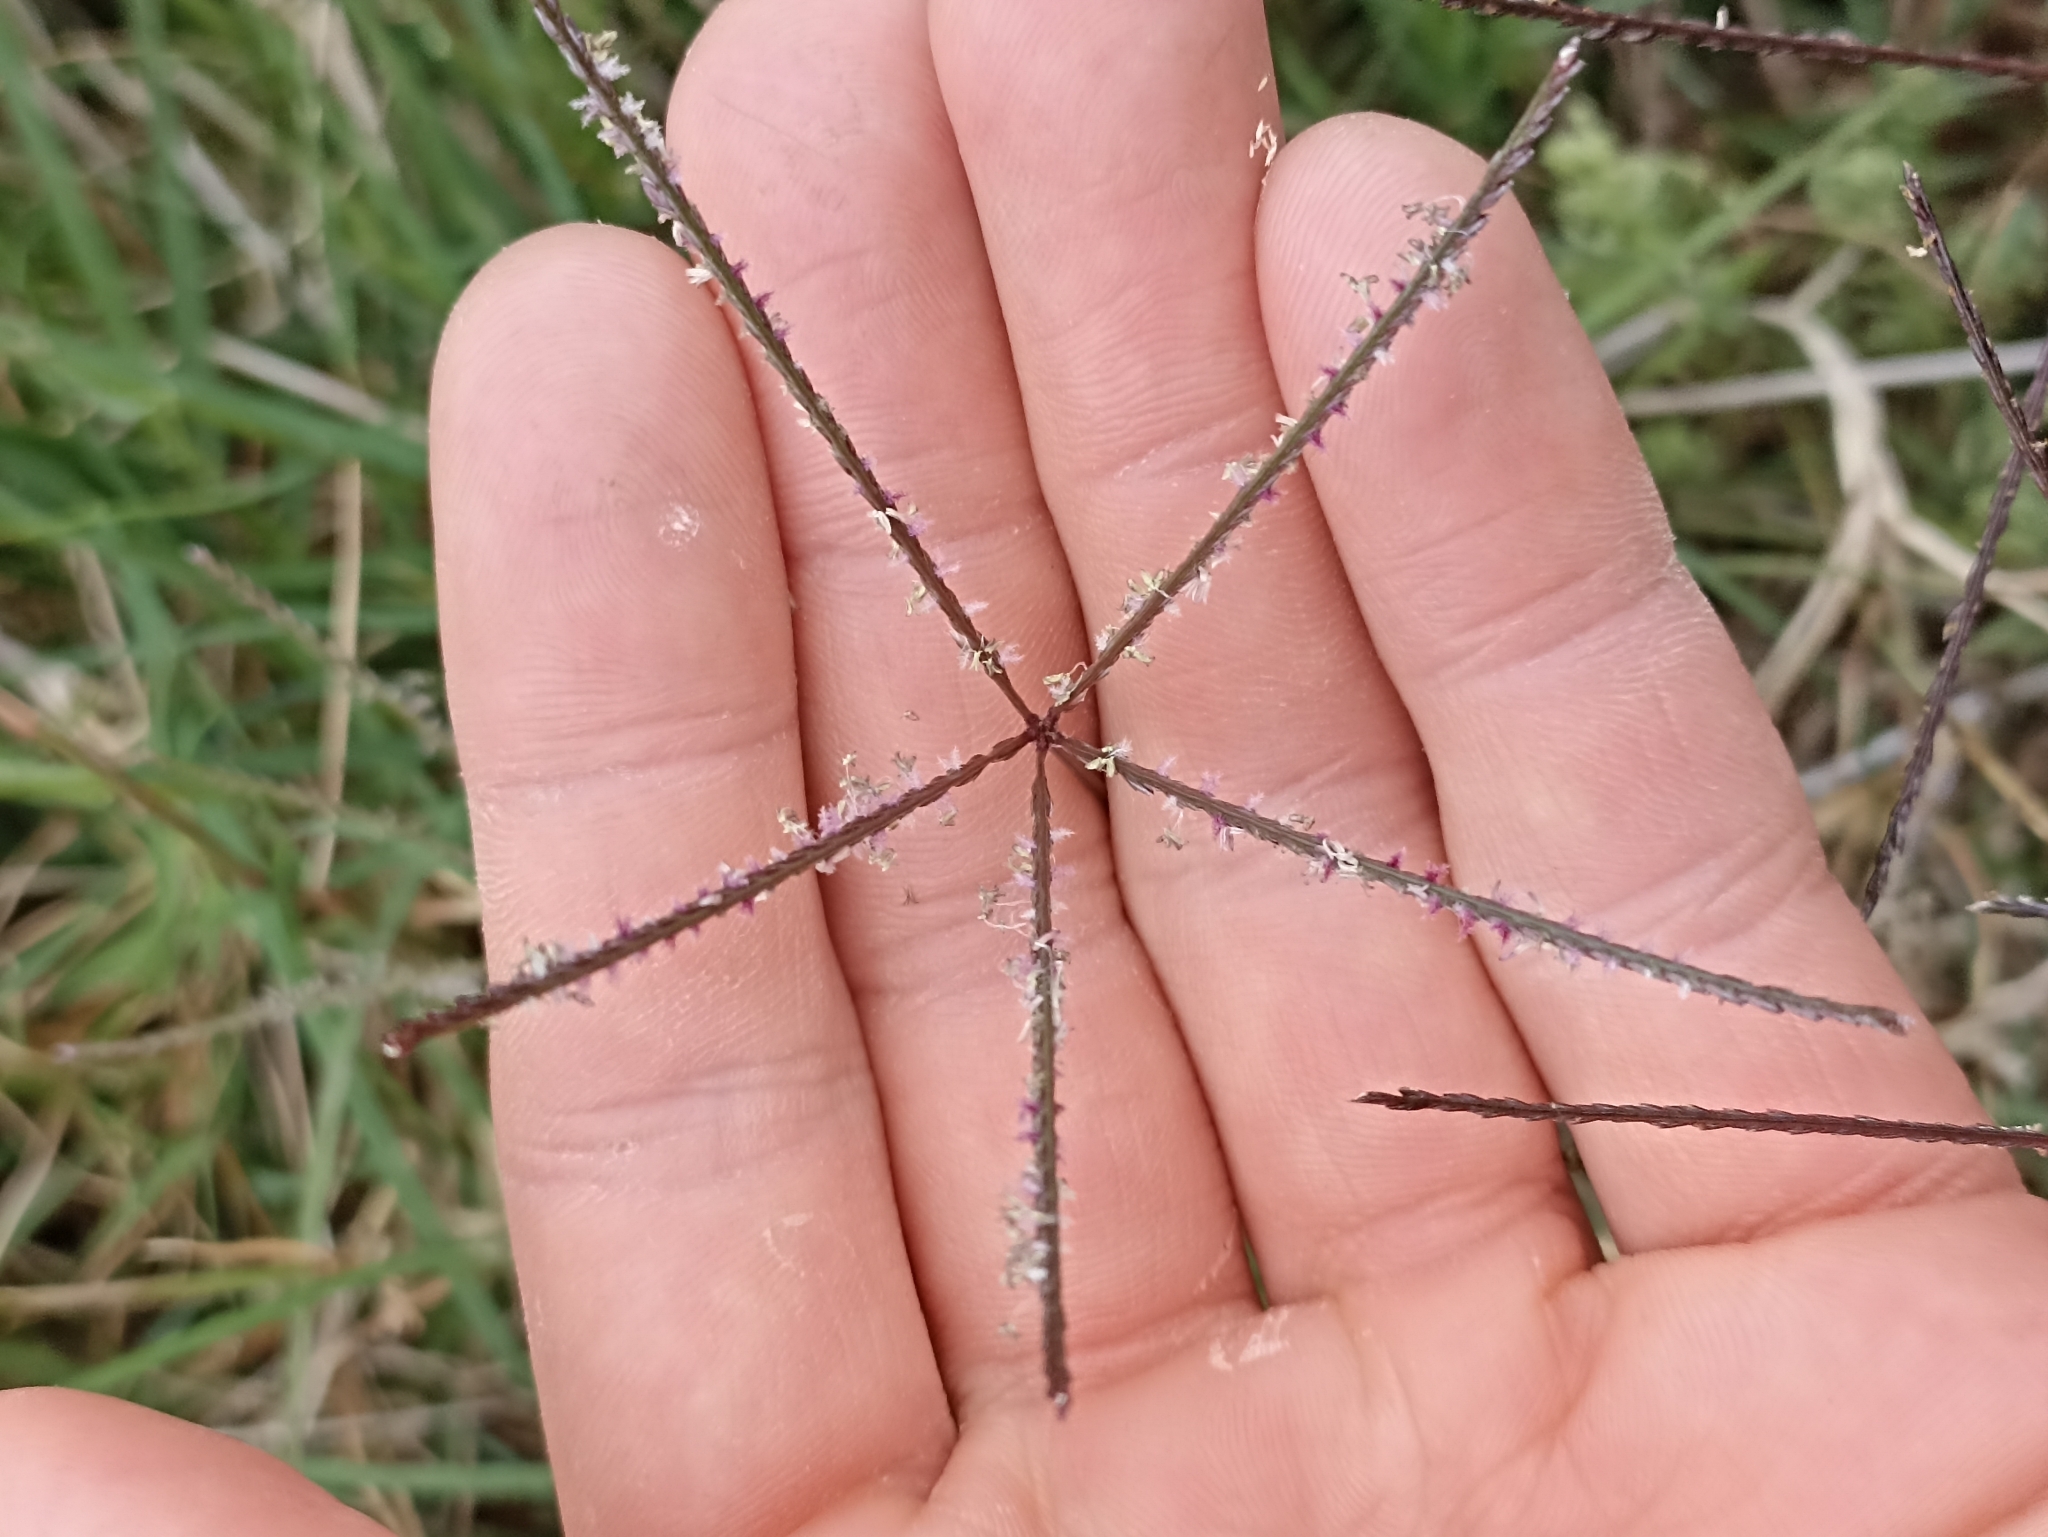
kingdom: Plantae
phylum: Tracheophyta
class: Liliopsida
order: Poales
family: Poaceae
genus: Cynodon
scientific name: Cynodon dactylon
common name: Bermuda grass
